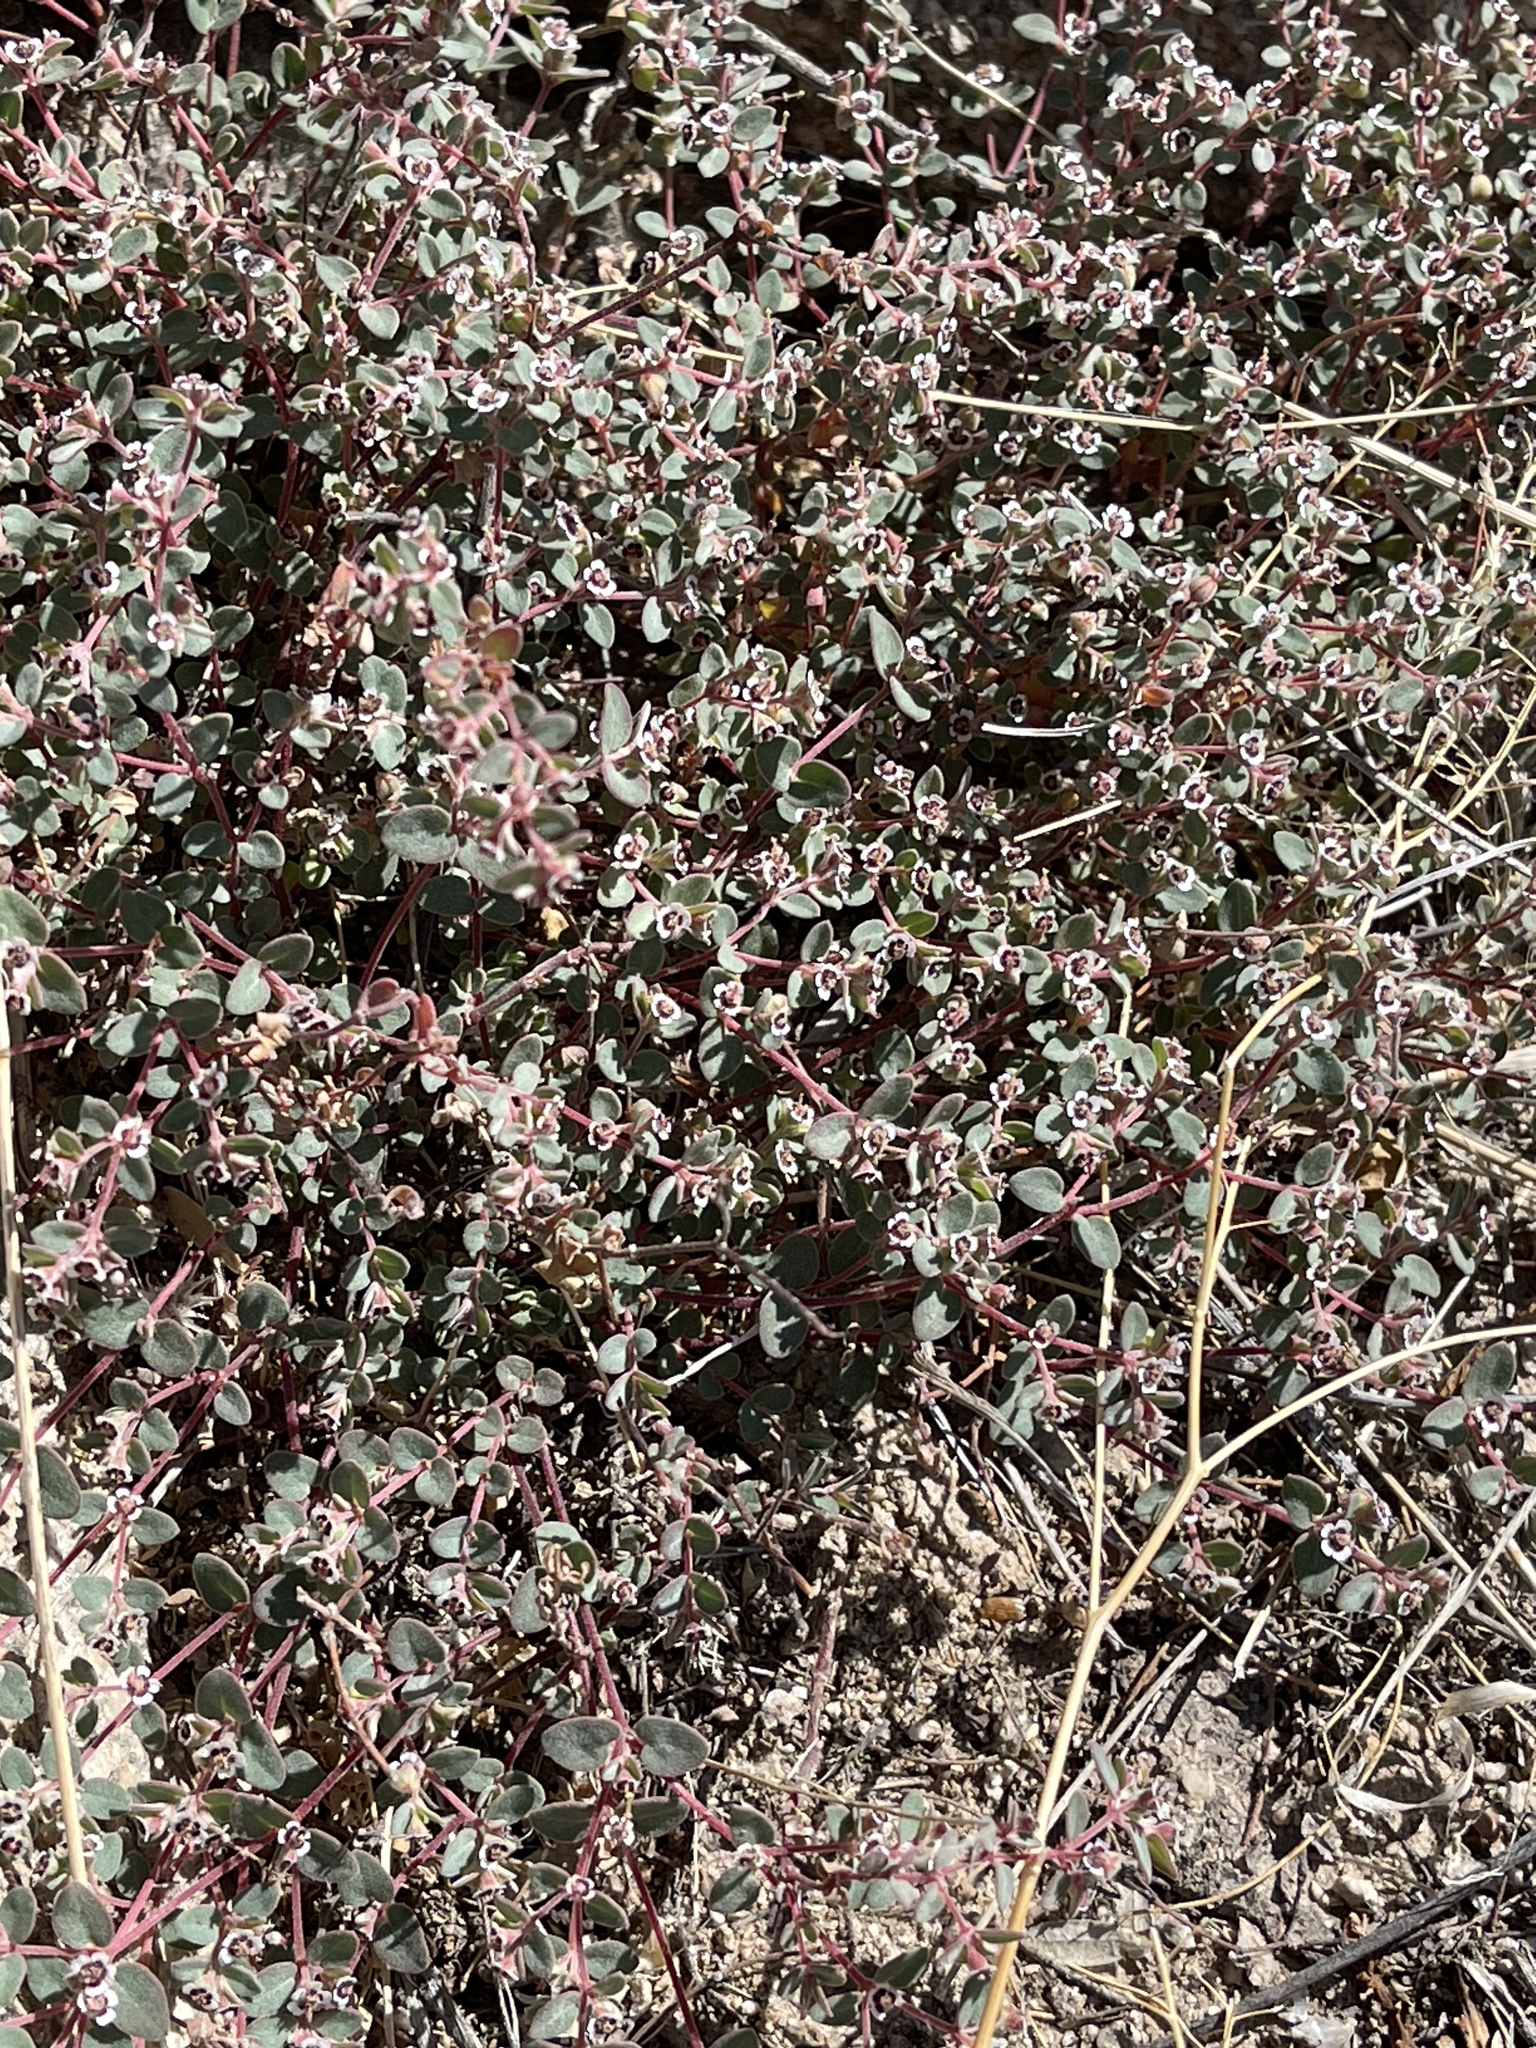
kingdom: Plantae
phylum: Tracheophyta
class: Magnoliopsida
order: Malpighiales
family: Euphorbiaceae
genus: Euphorbia
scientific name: Euphorbia melanadenia
